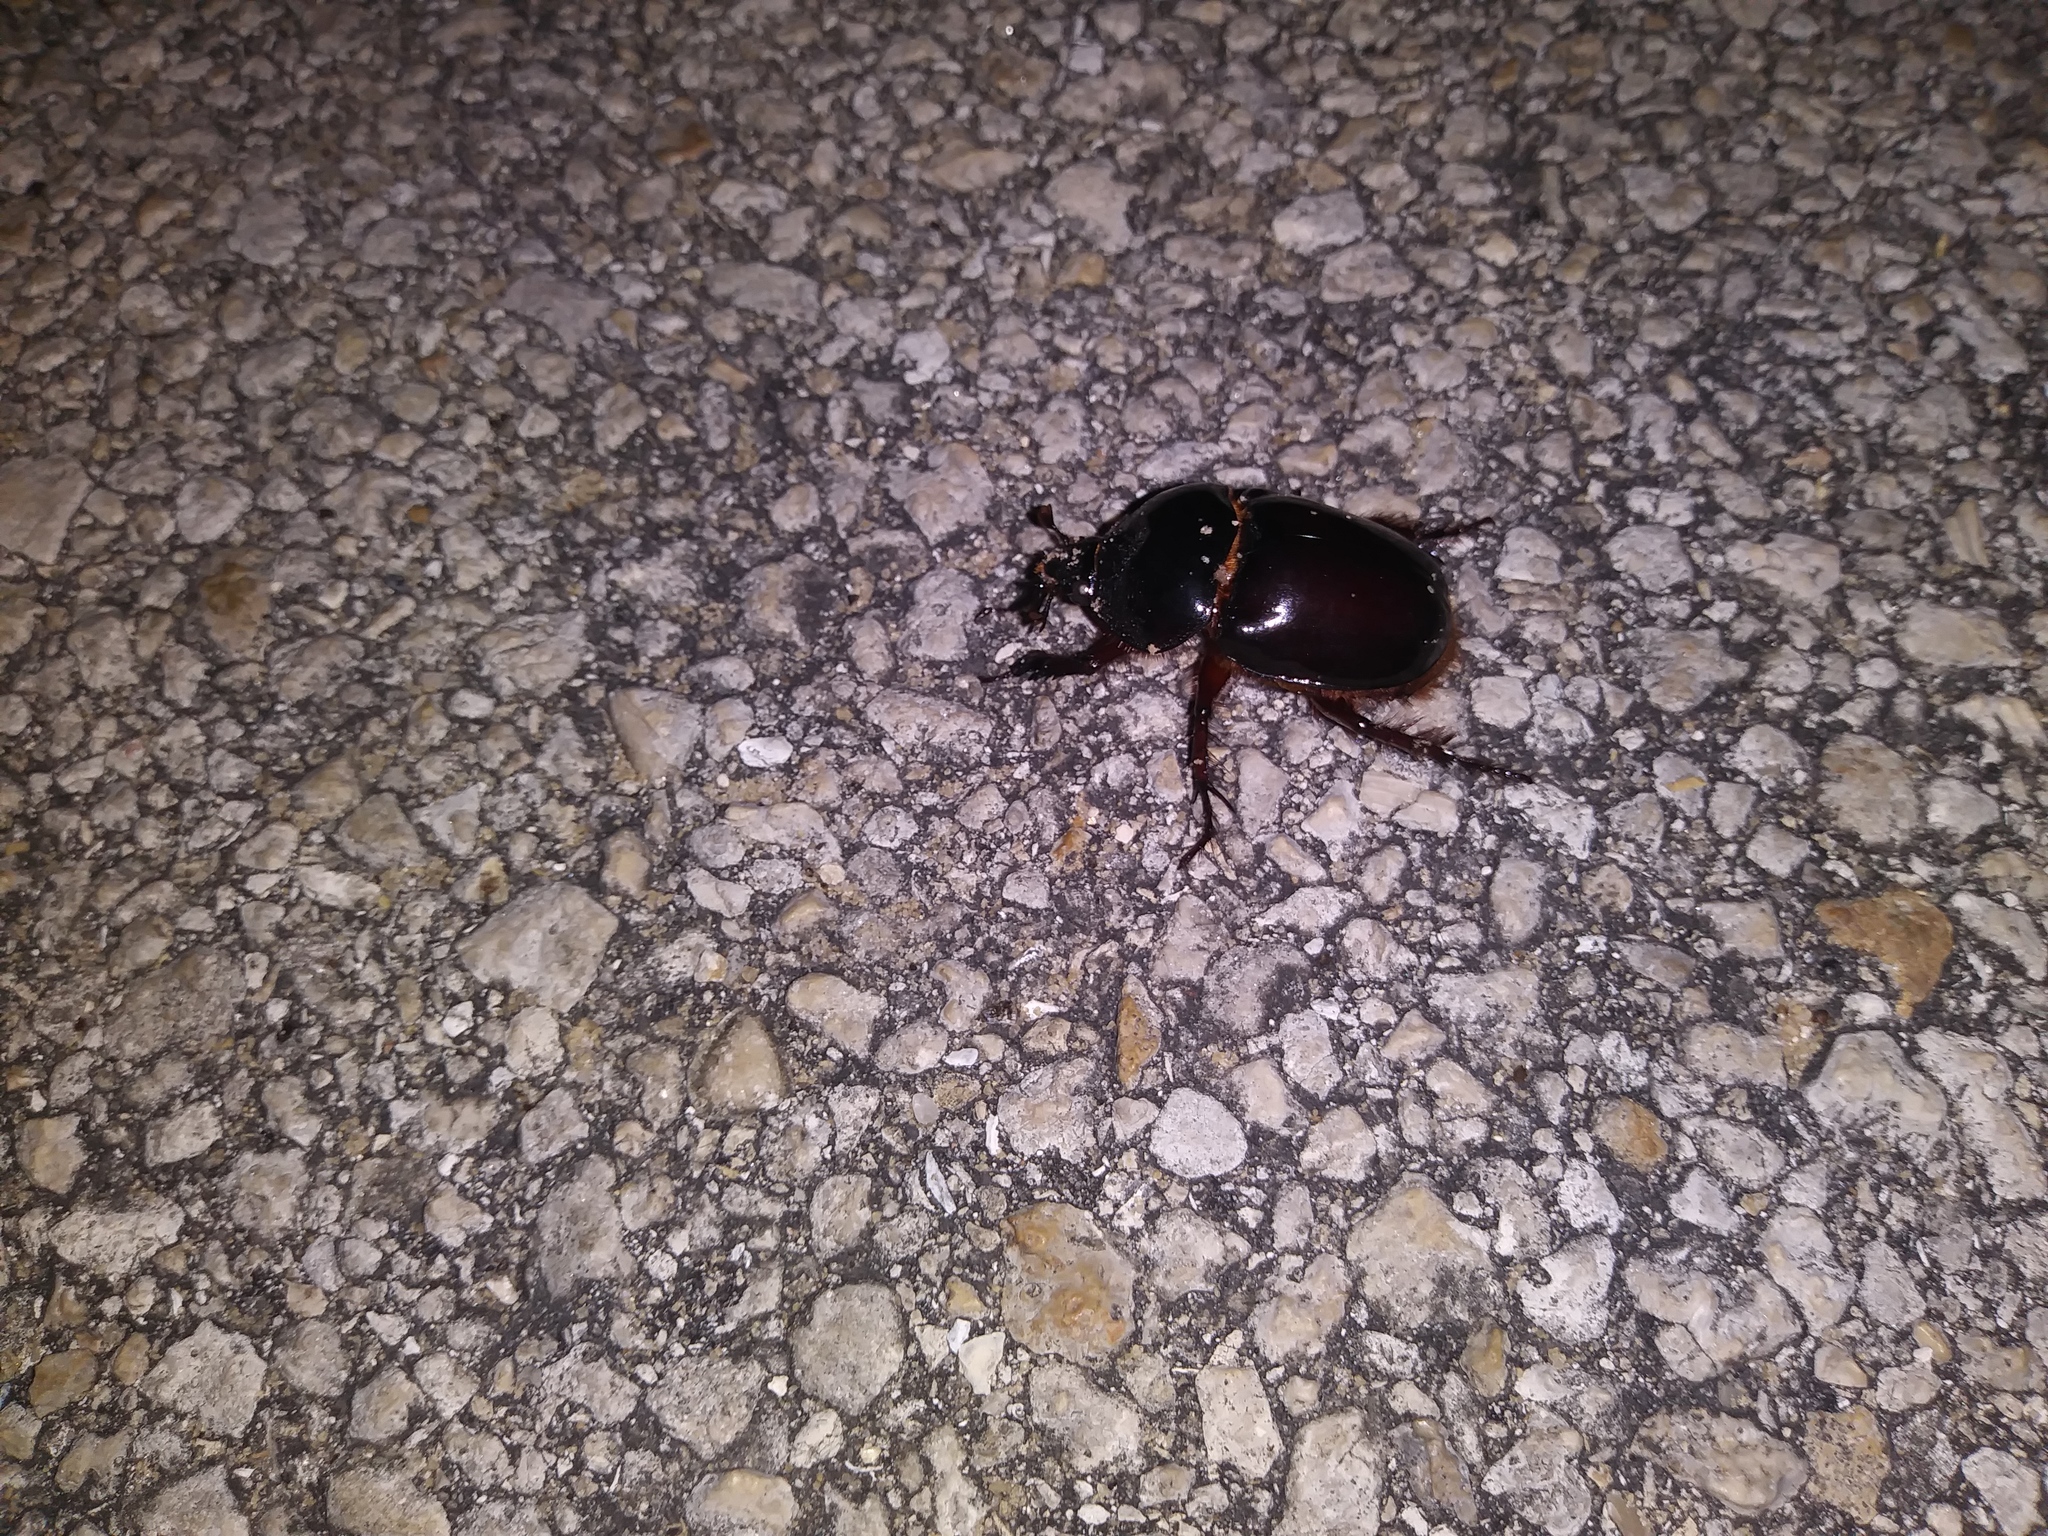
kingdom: Animalia
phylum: Arthropoda
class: Insecta
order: Coleoptera
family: Scarabaeidae
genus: Strategus
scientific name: Strategus antaeus
